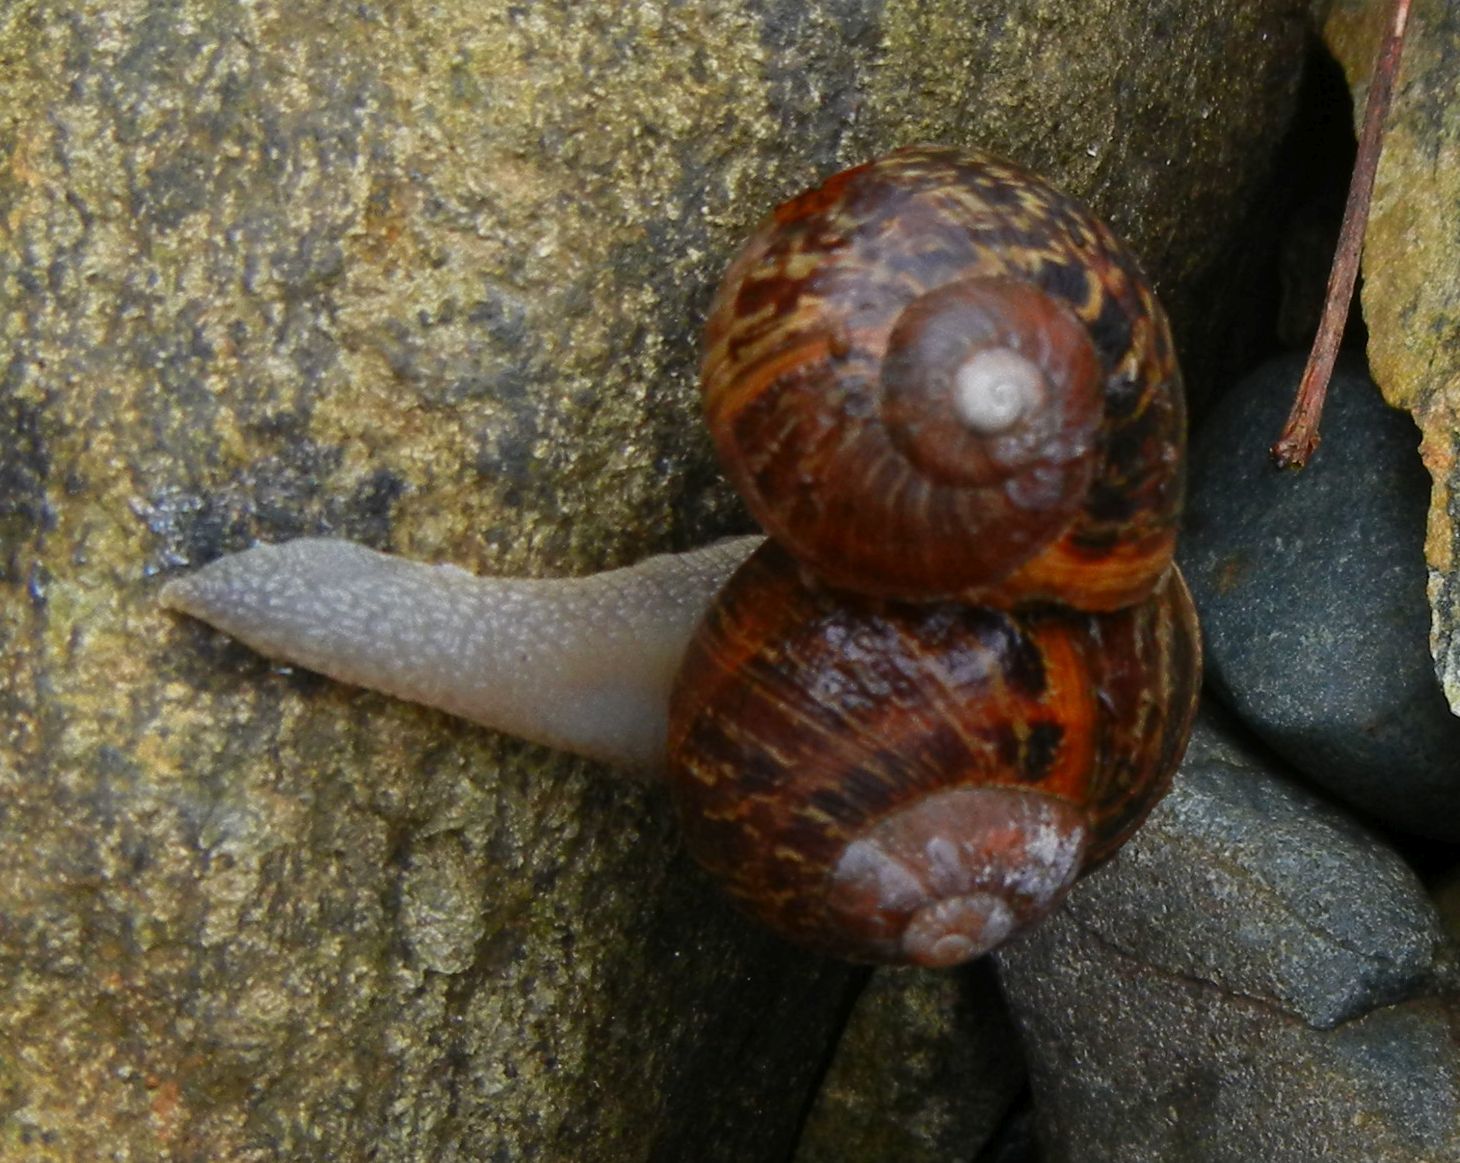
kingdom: Animalia
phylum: Mollusca
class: Gastropoda
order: Stylommatophora
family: Helicidae
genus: Cornu
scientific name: Cornu aspersum
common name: Brown garden snail
